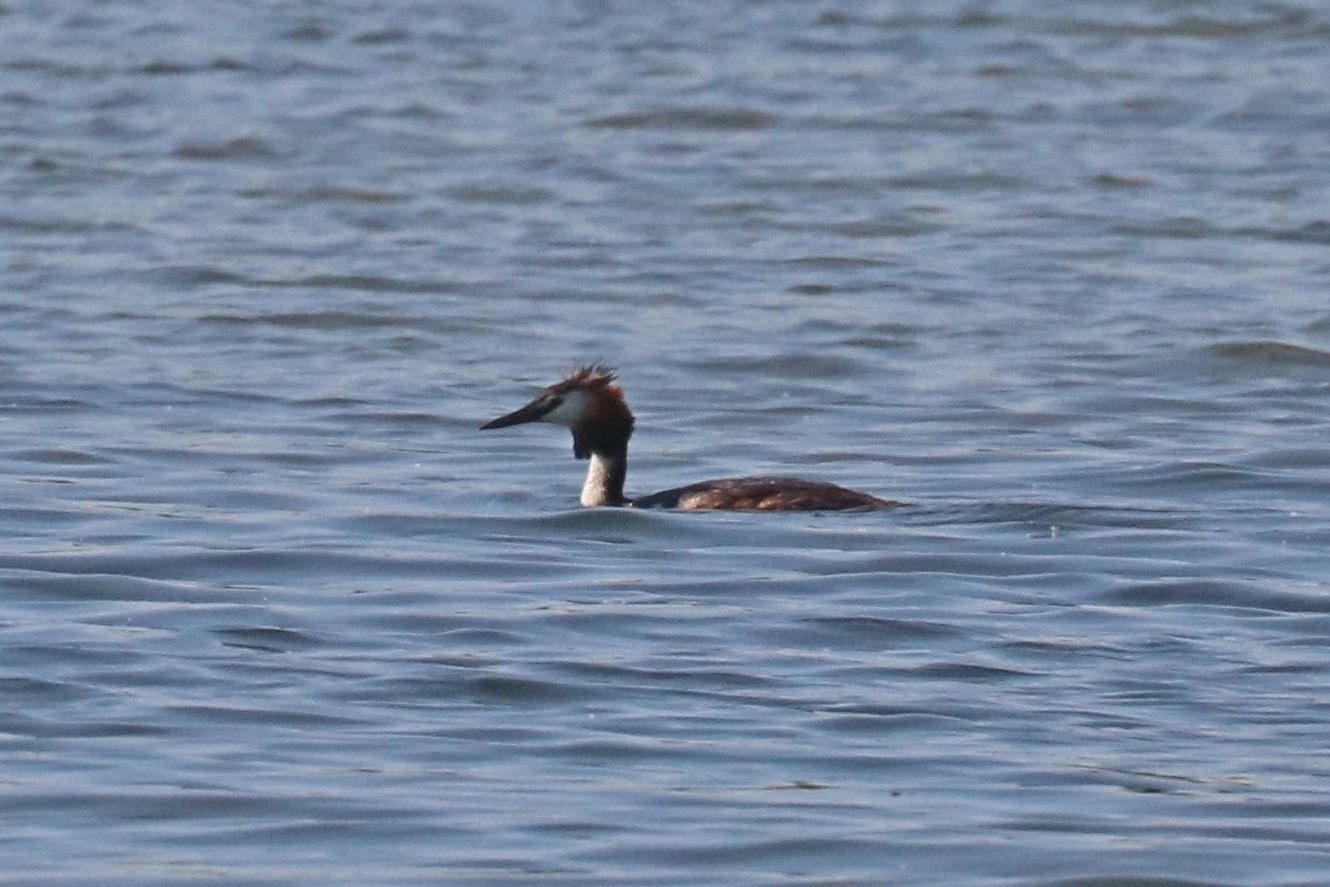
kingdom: Animalia
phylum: Chordata
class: Aves
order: Podicipediformes
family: Podicipedidae
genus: Podiceps
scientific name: Podiceps cristatus
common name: Great crested grebe
